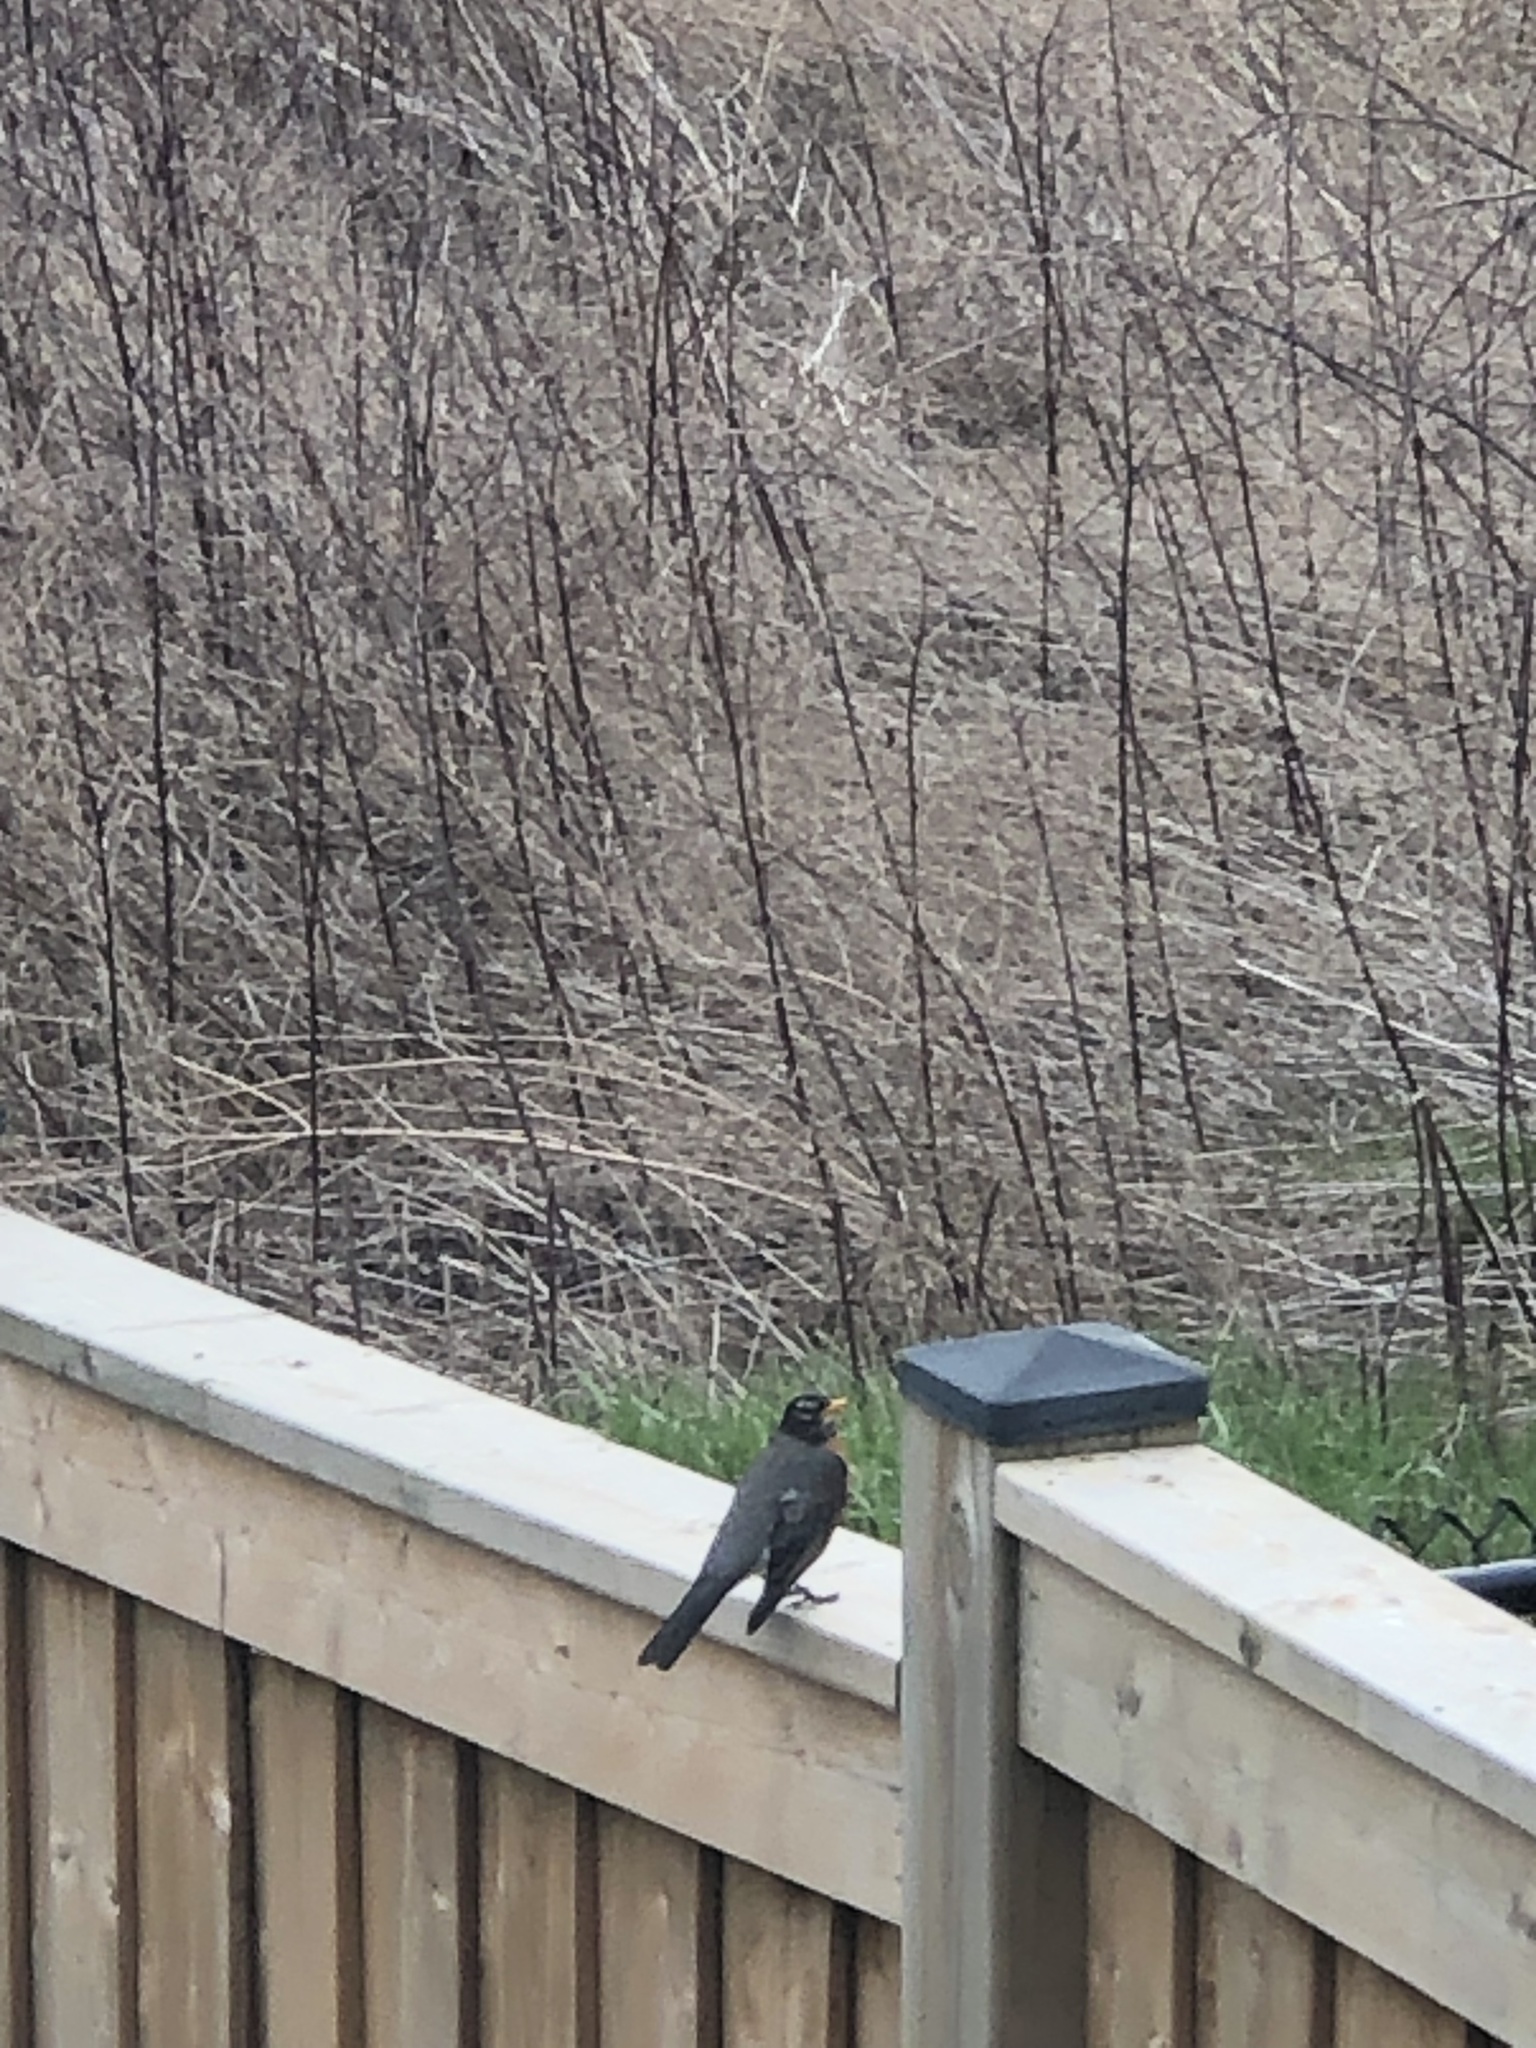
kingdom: Animalia
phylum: Chordata
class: Aves
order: Passeriformes
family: Turdidae
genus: Turdus
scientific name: Turdus migratorius
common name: American robin
